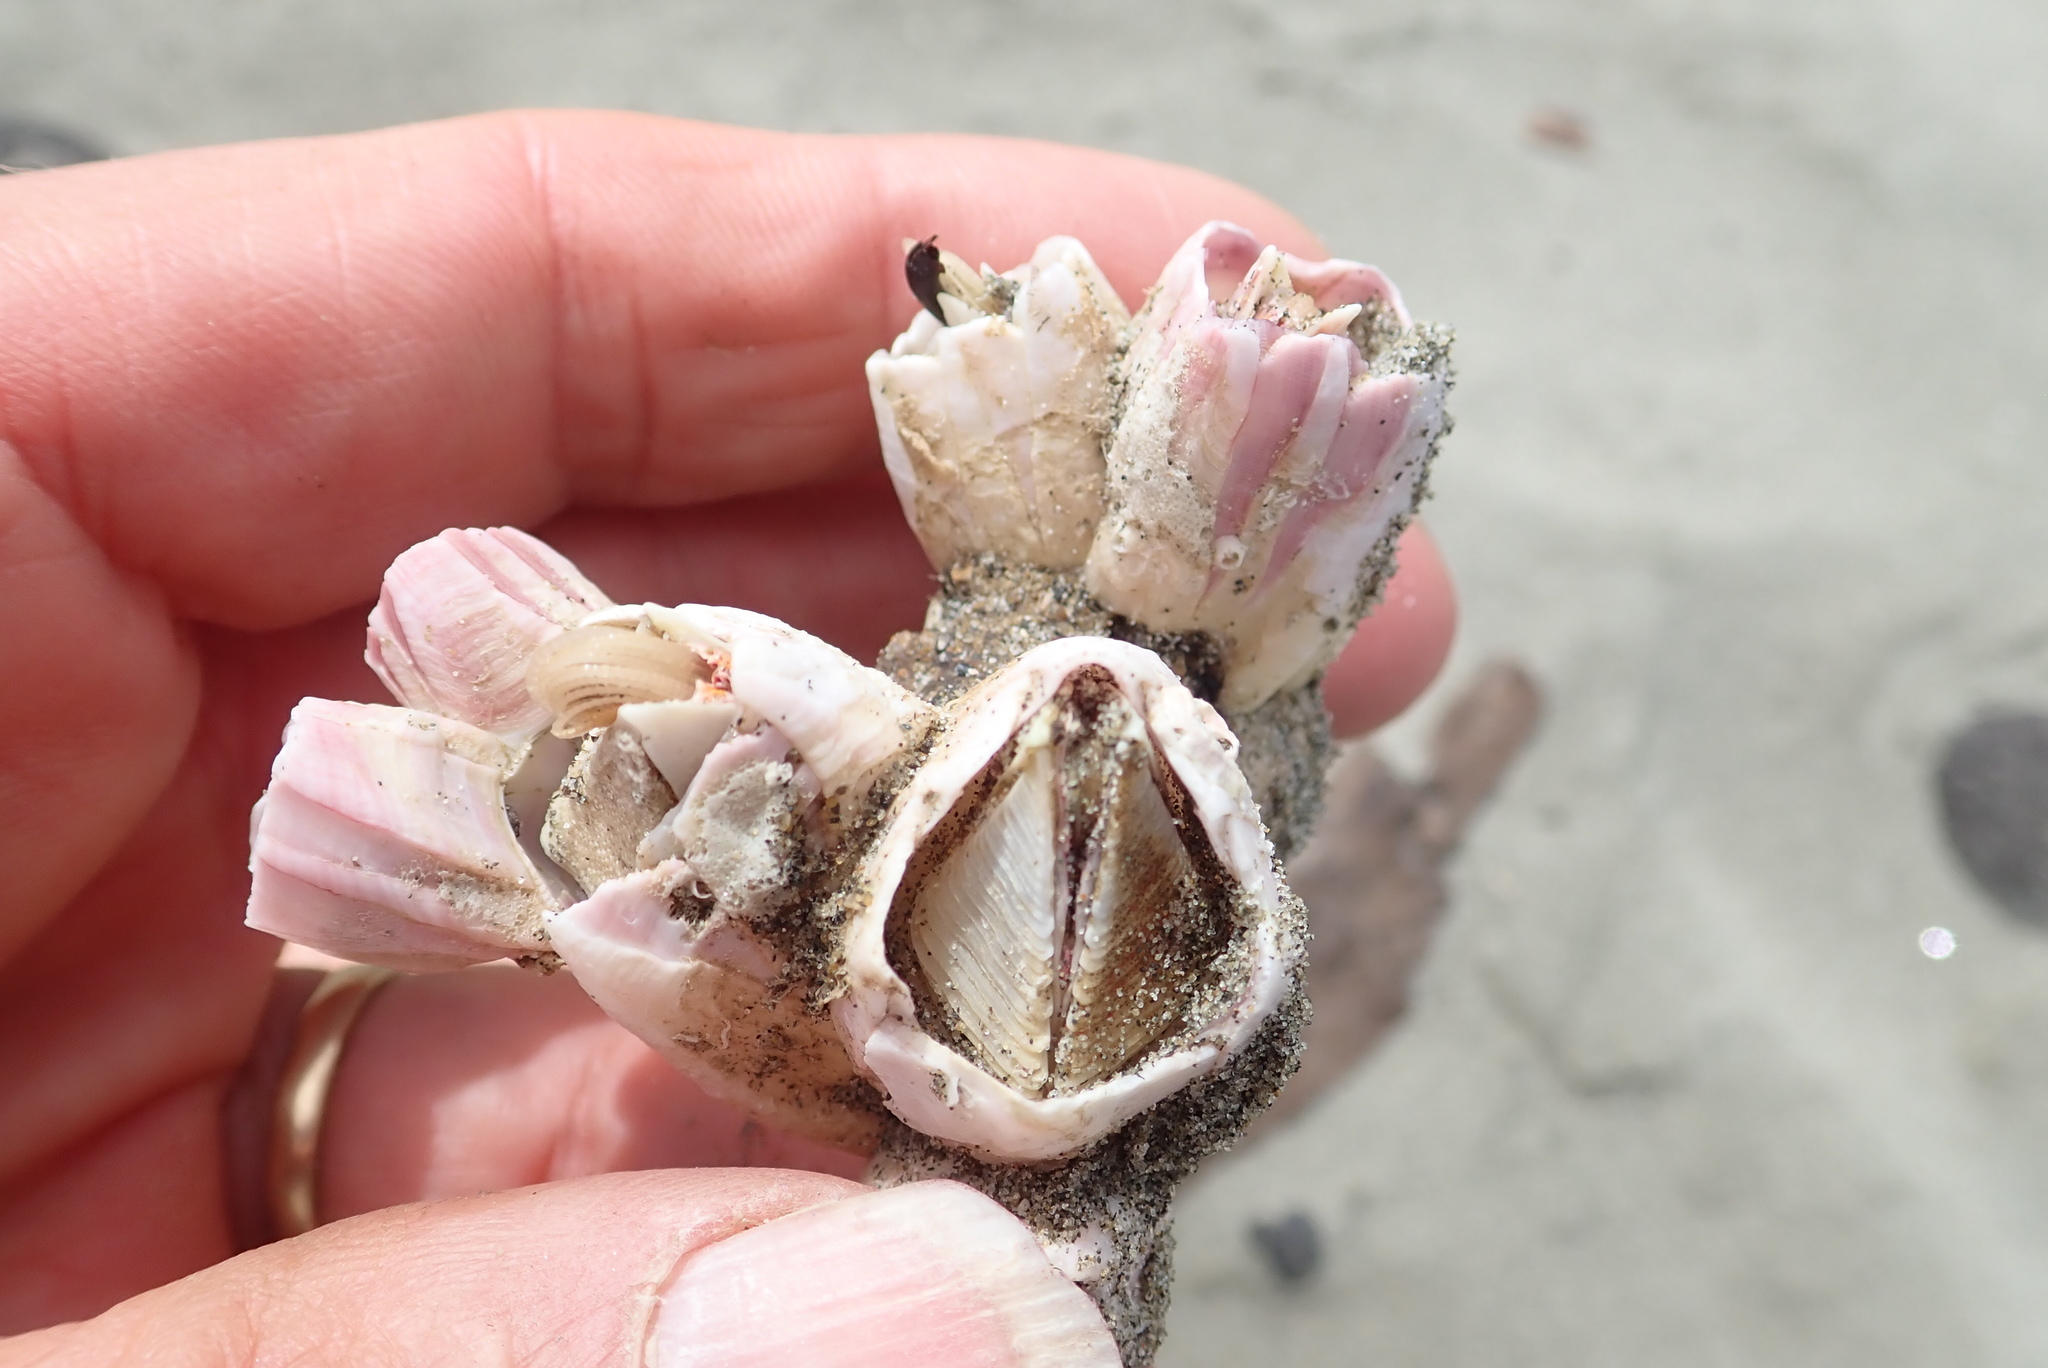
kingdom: Animalia
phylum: Arthropoda
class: Maxillopoda
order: Sessilia
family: Balanidae
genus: Notomegabalanus
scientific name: Notomegabalanus decorus
